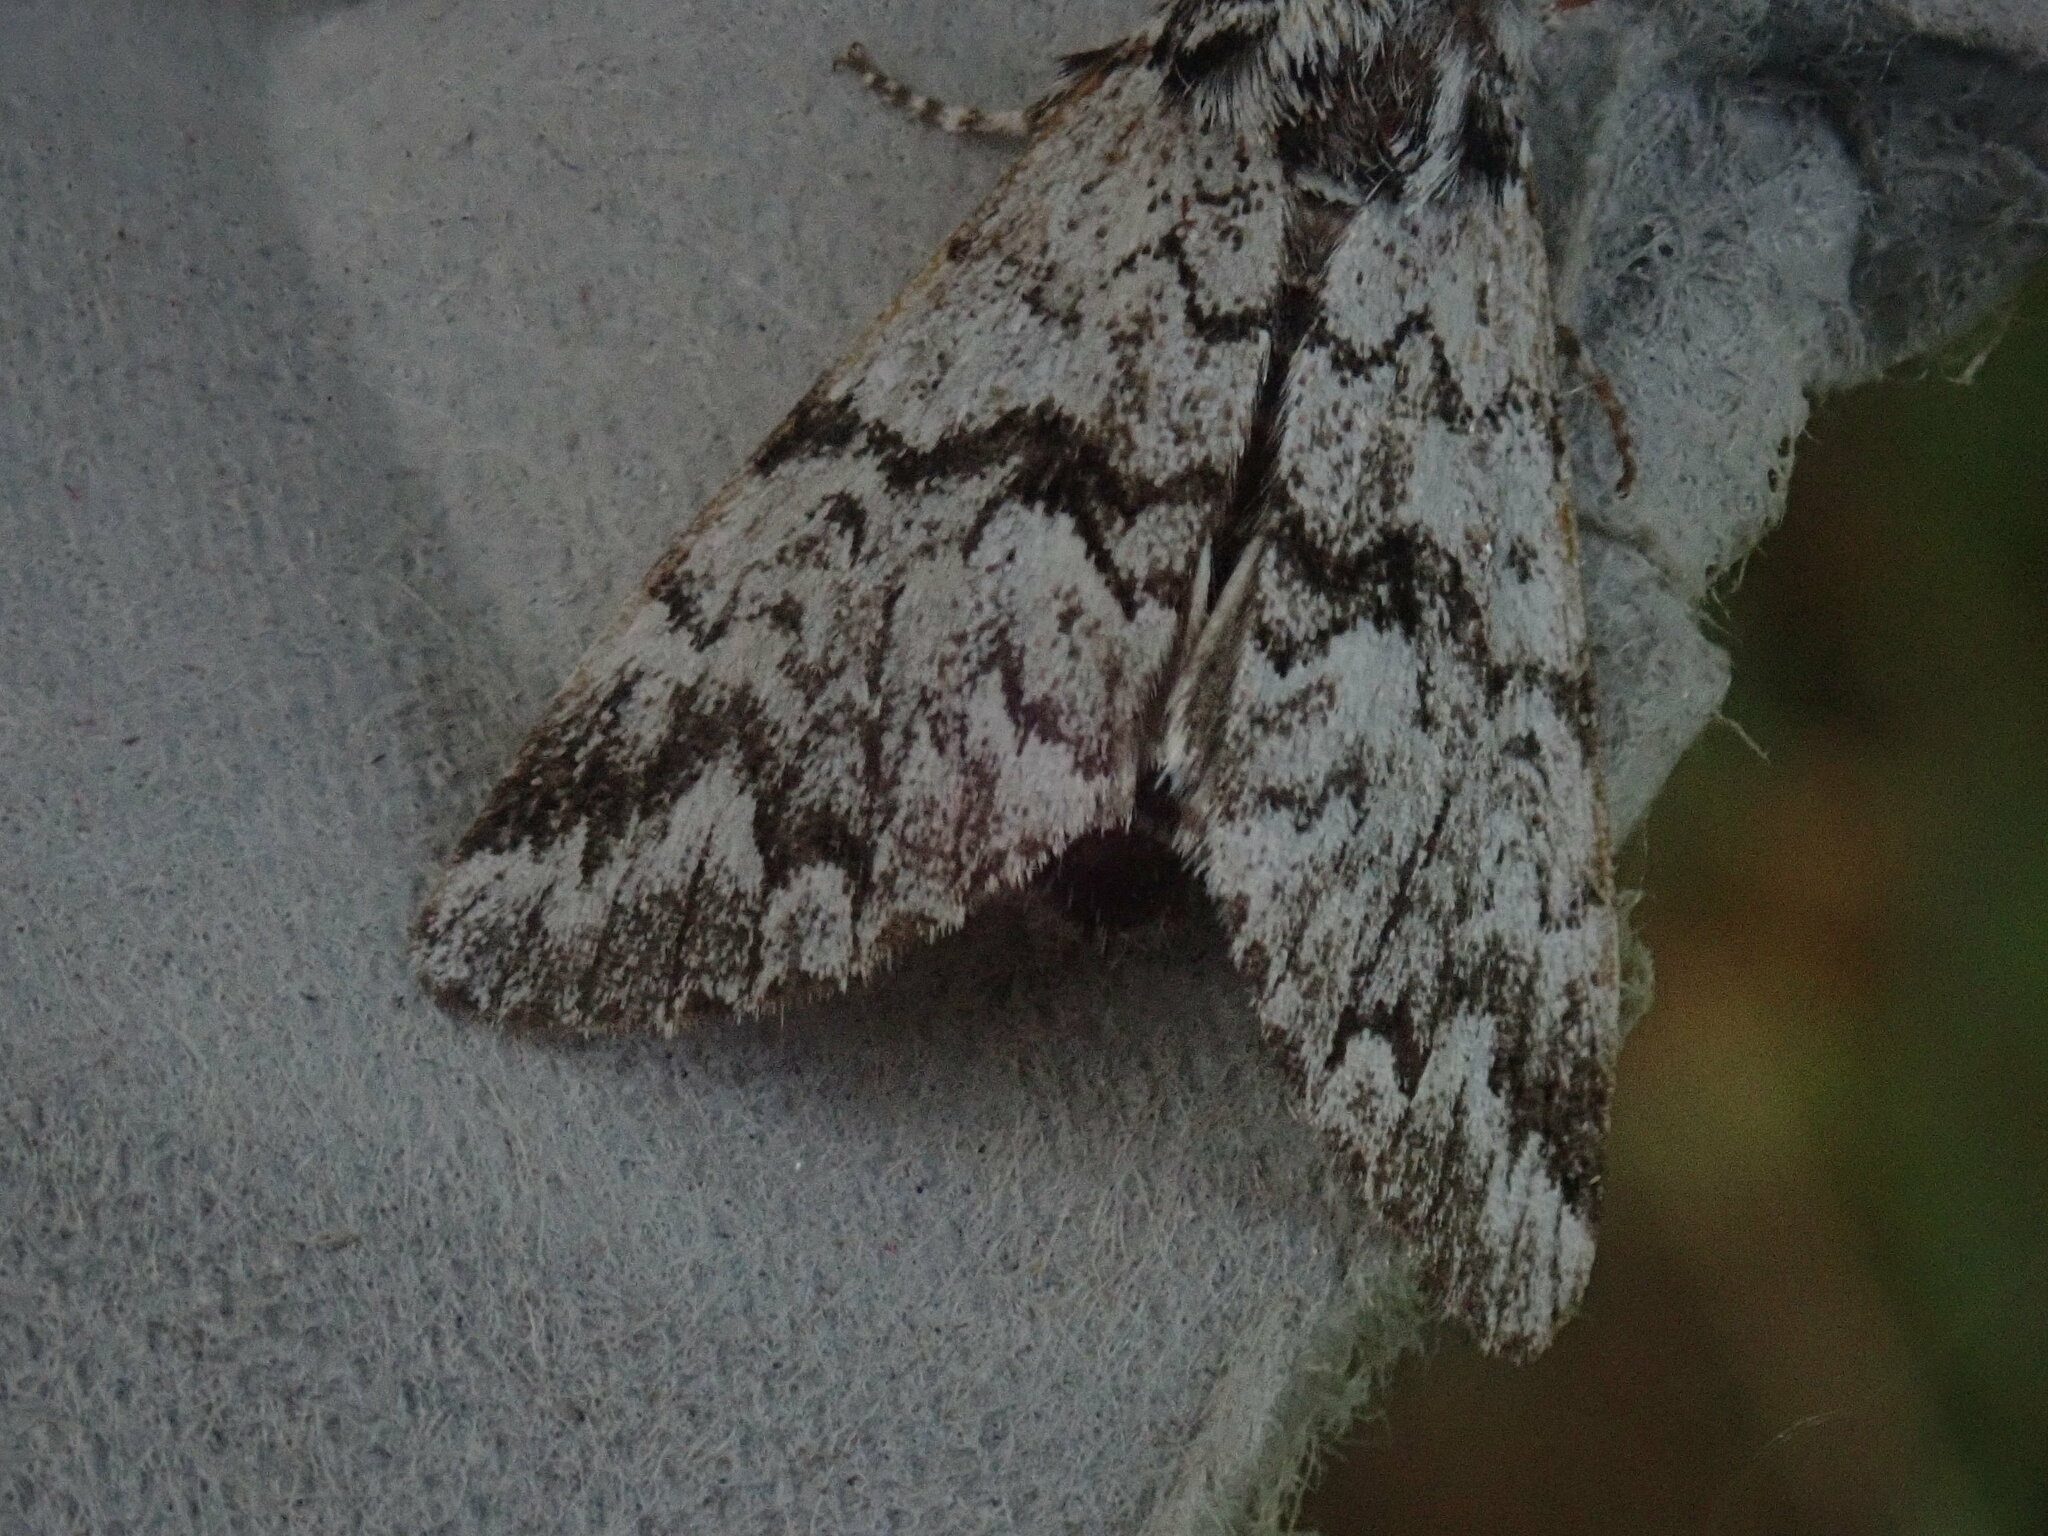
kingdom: Animalia
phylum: Arthropoda
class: Insecta
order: Lepidoptera
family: Noctuidae
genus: Panthea
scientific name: Panthea acronyctoides
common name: Black zigzag moth
